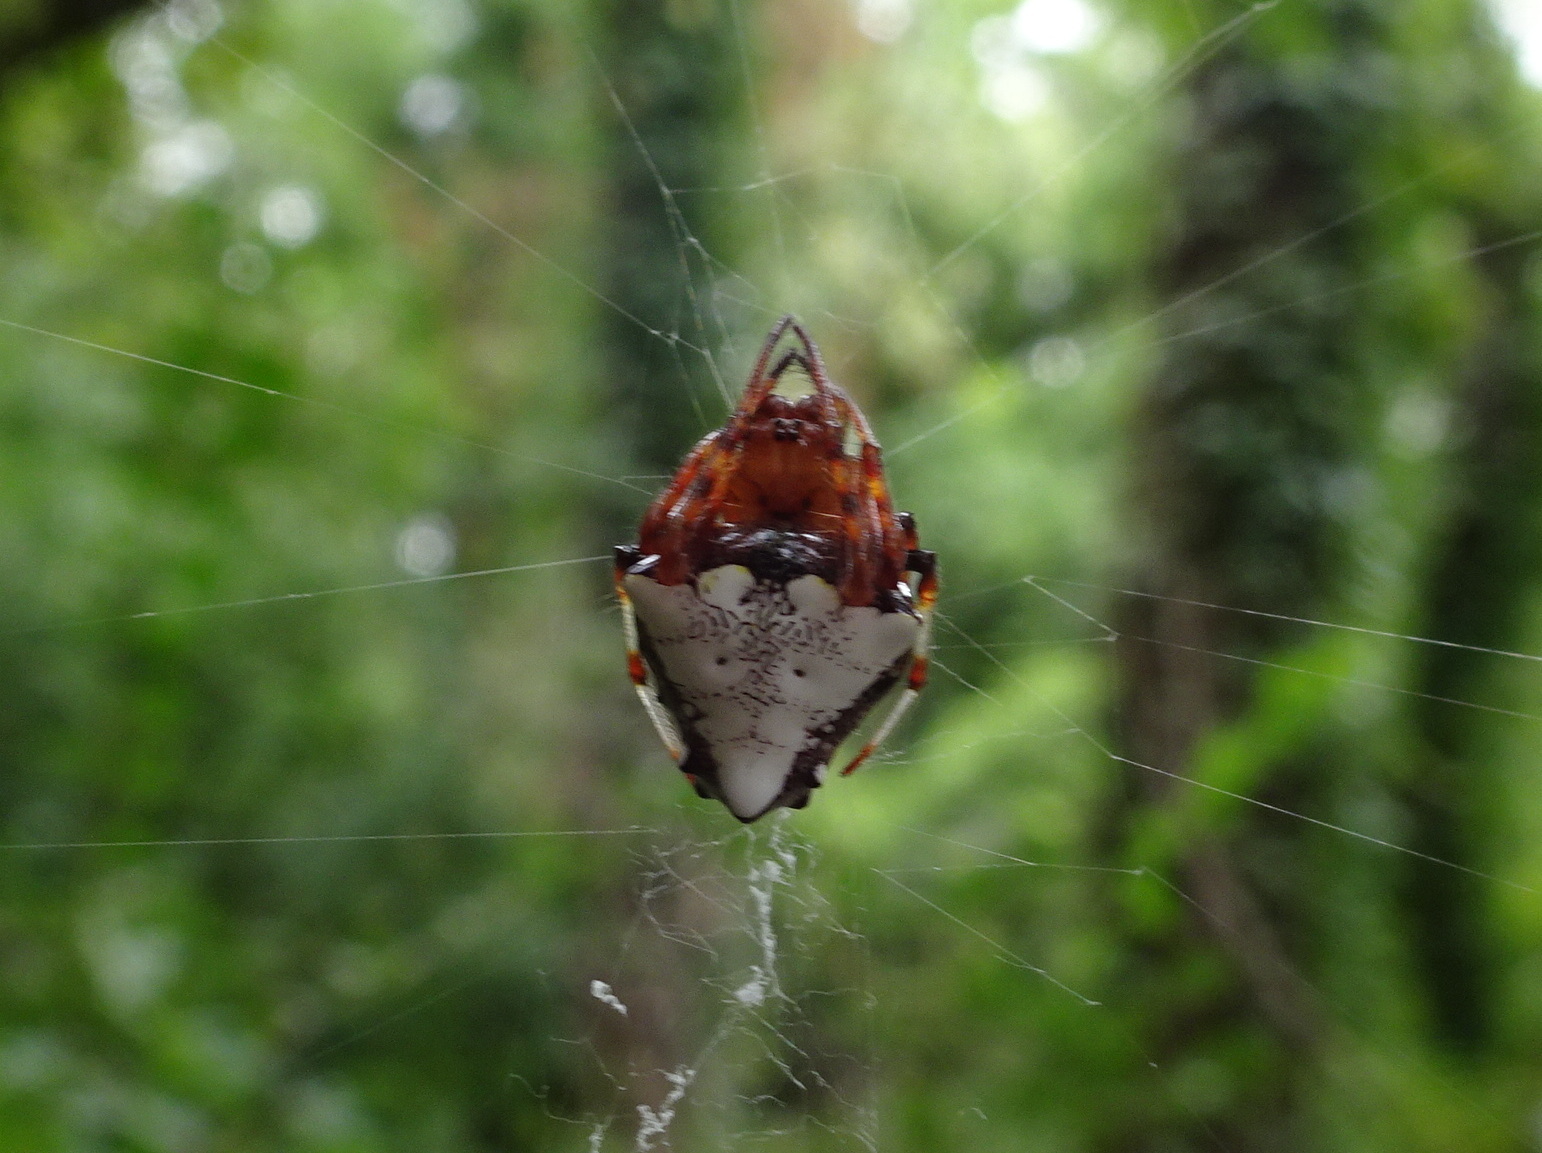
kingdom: Animalia
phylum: Arthropoda
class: Arachnida
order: Araneae
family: Araneidae
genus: Verrucosa
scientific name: Verrucosa arenata
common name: Orb weavers
